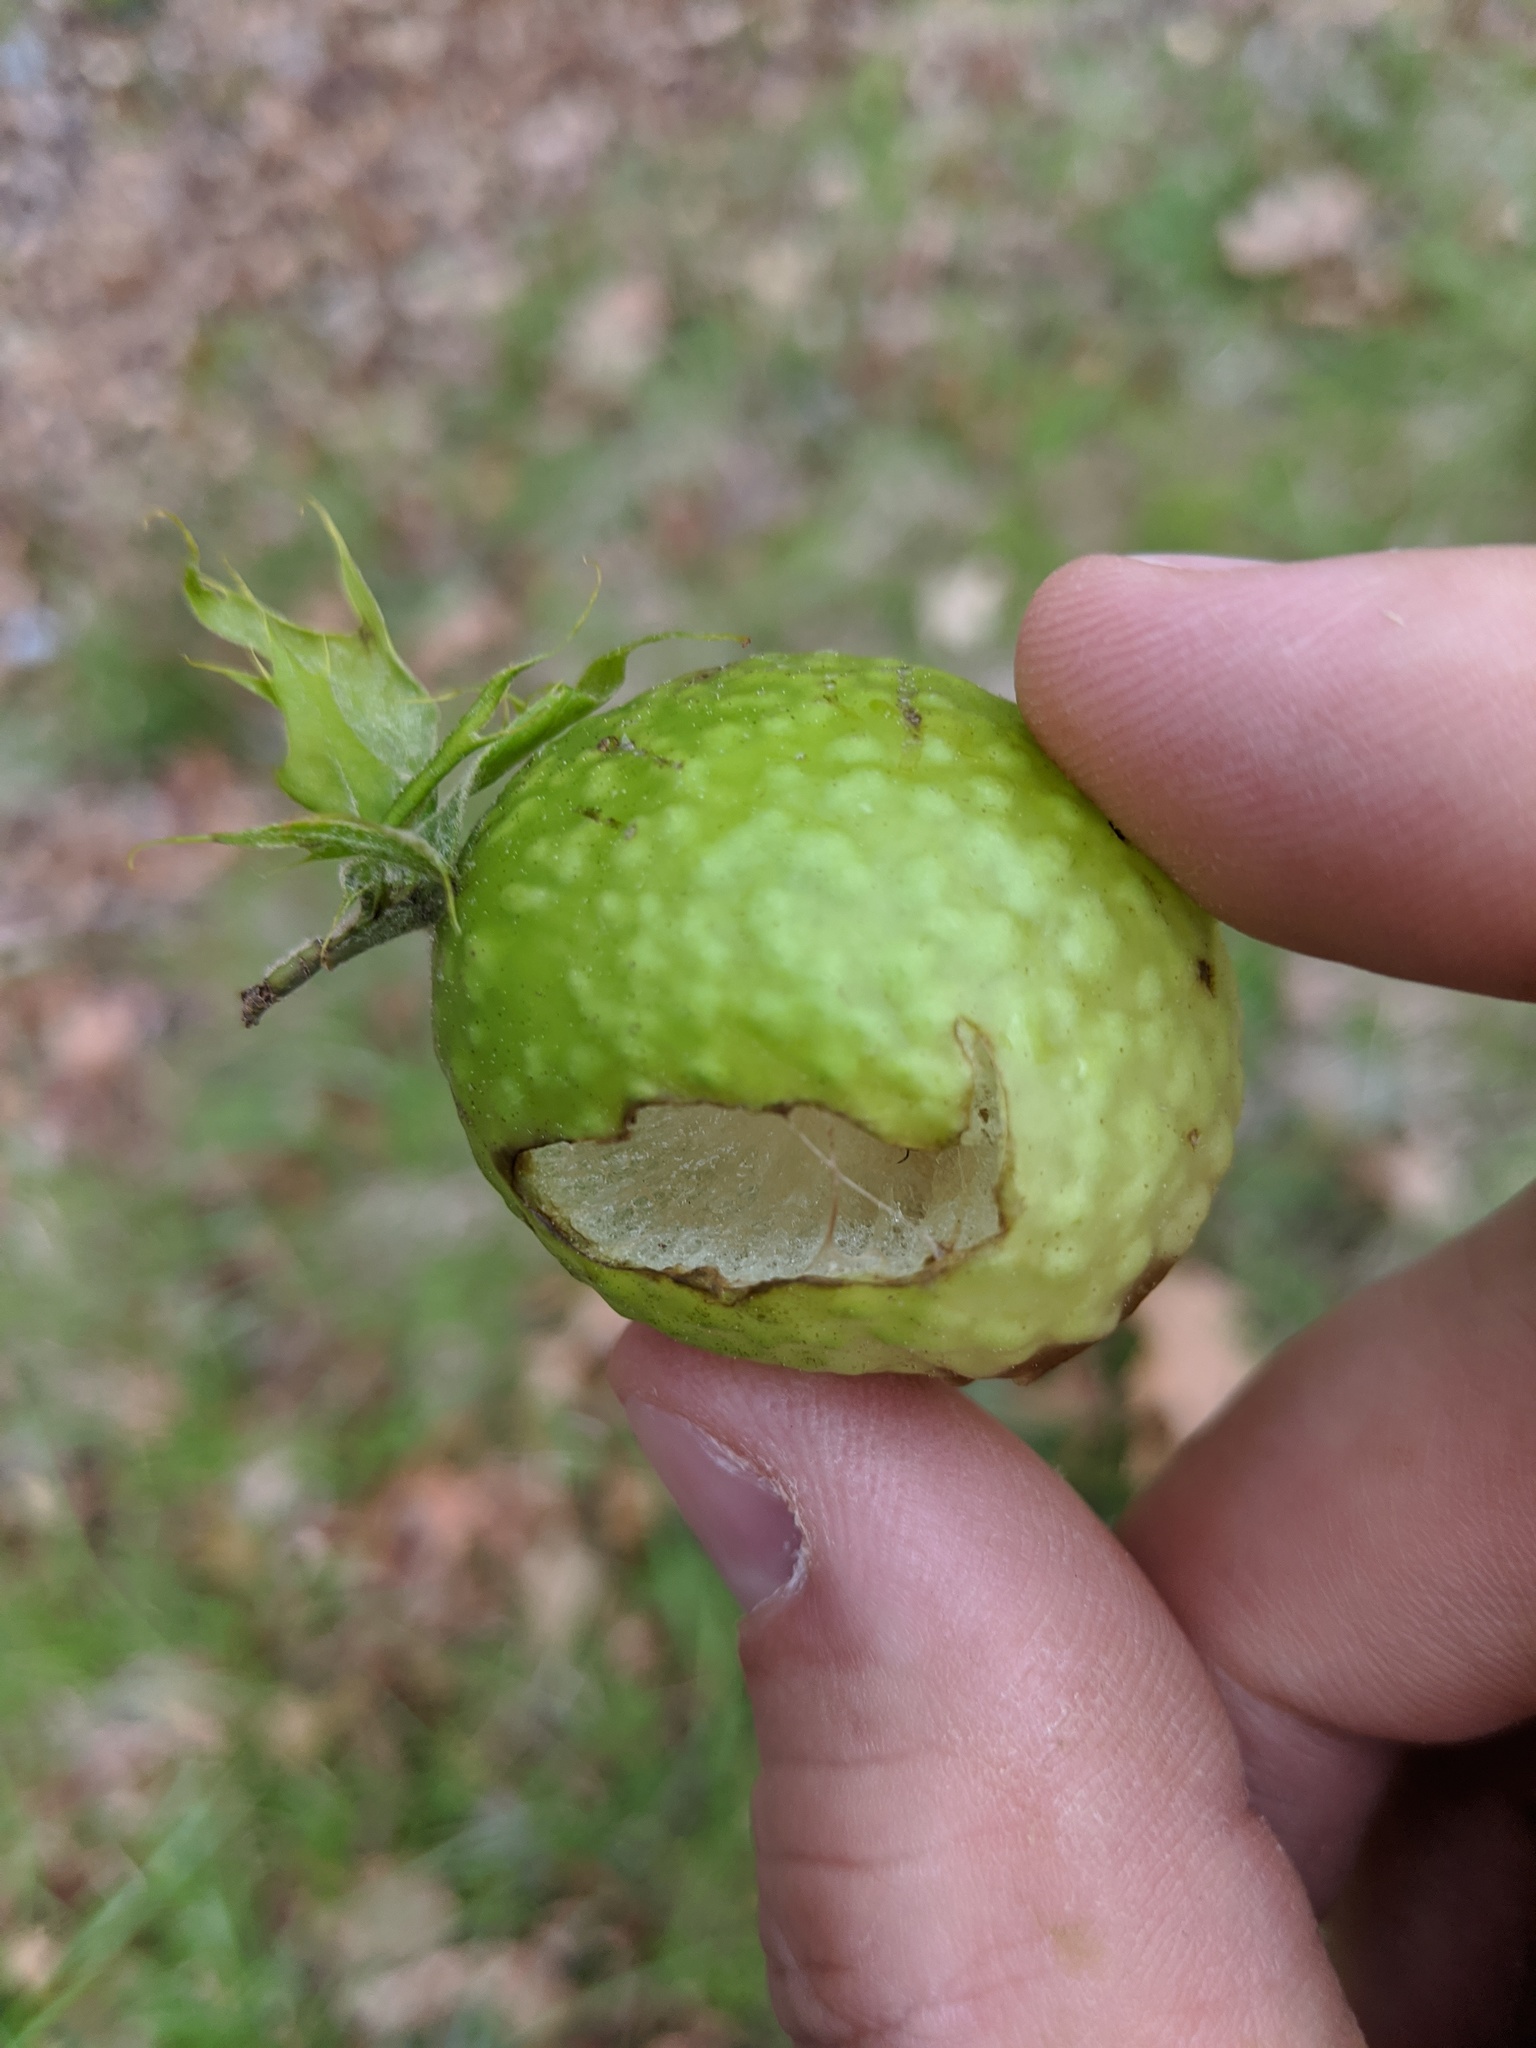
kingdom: Animalia
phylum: Arthropoda
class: Insecta
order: Hymenoptera
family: Cynipidae
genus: Amphibolips
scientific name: Amphibolips
